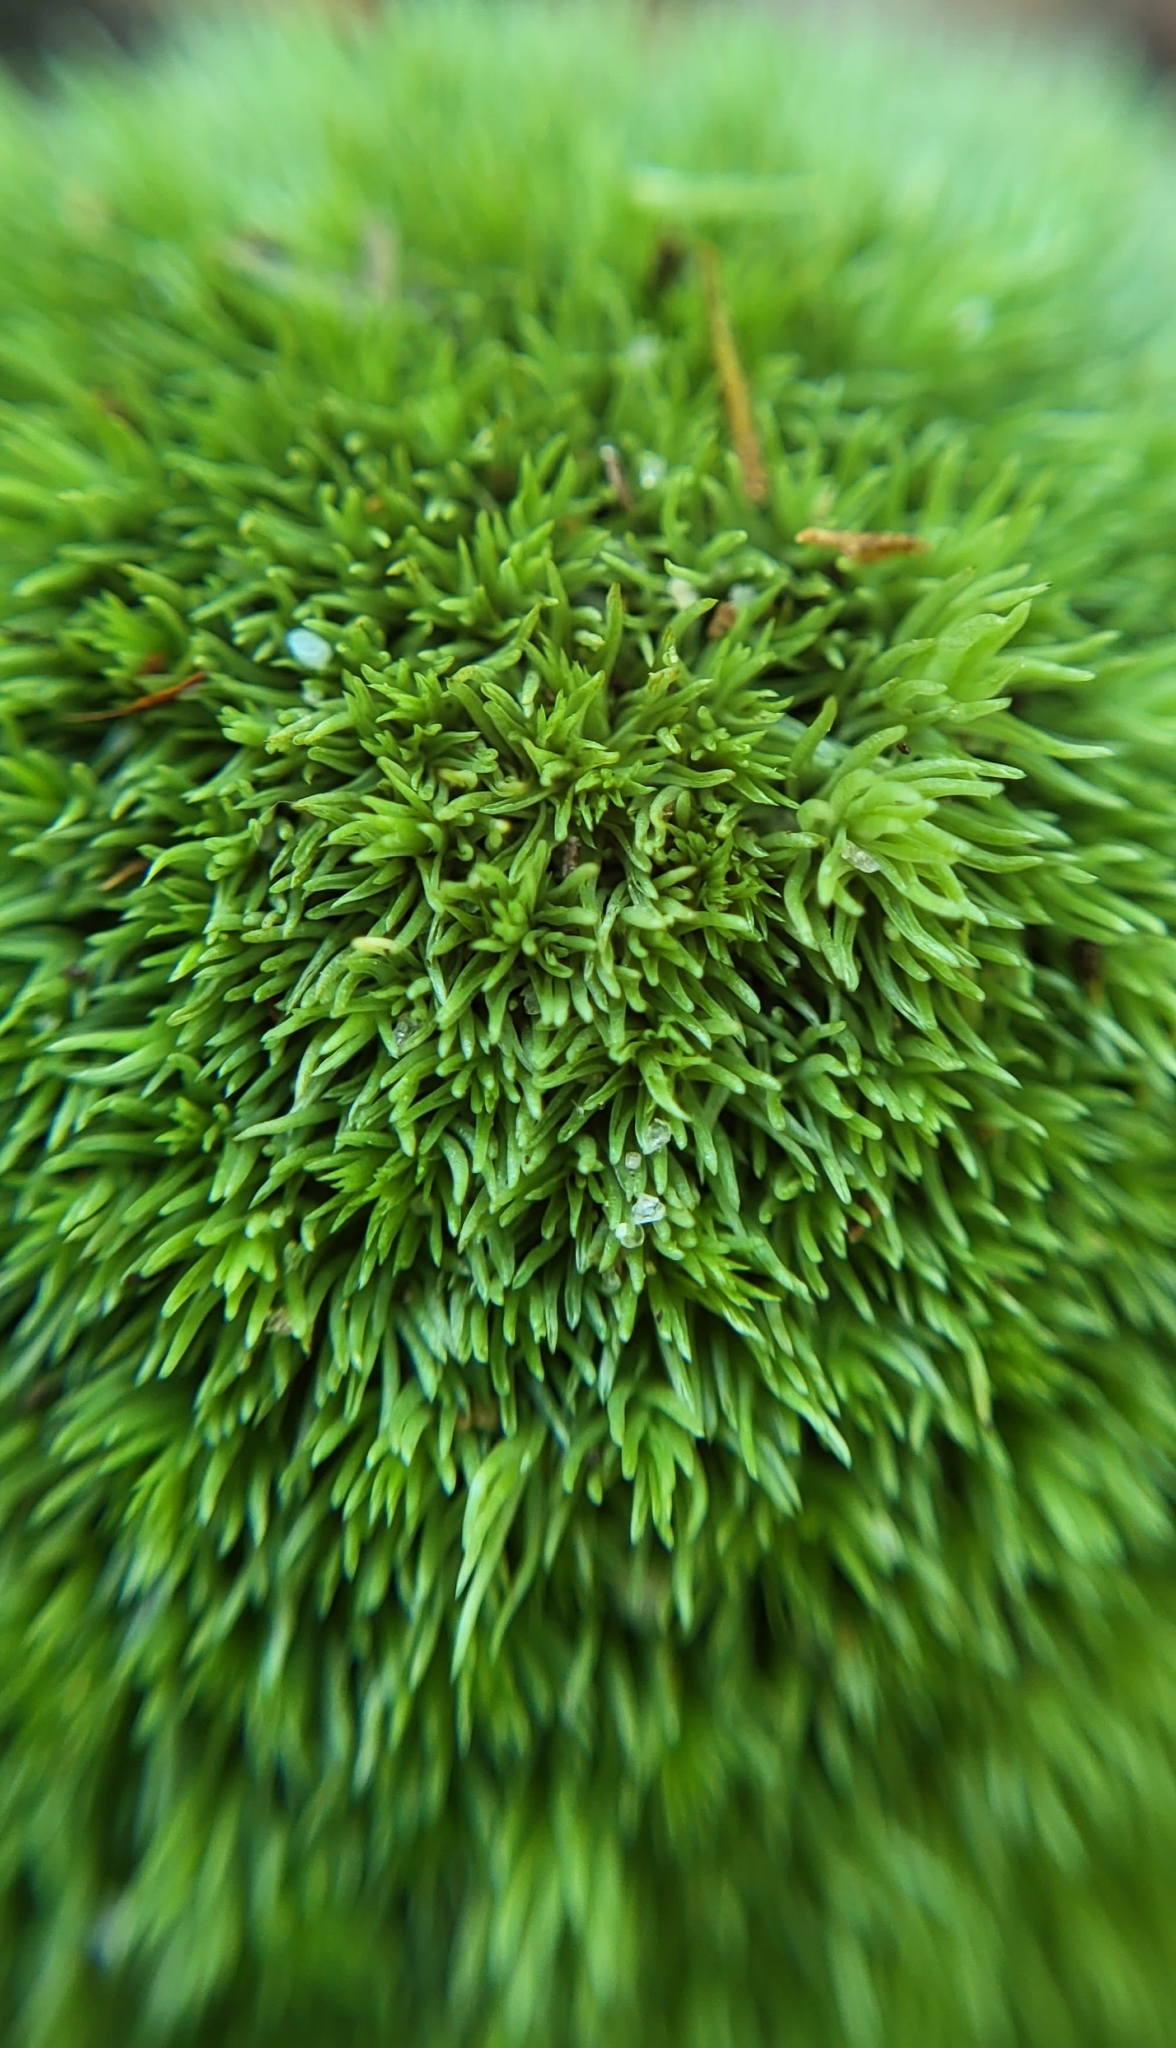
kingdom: Plantae
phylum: Bryophyta
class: Bryopsida
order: Dicranales
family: Leucobryaceae
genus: Leucobryum
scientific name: Leucobryum albidum
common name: White moss
